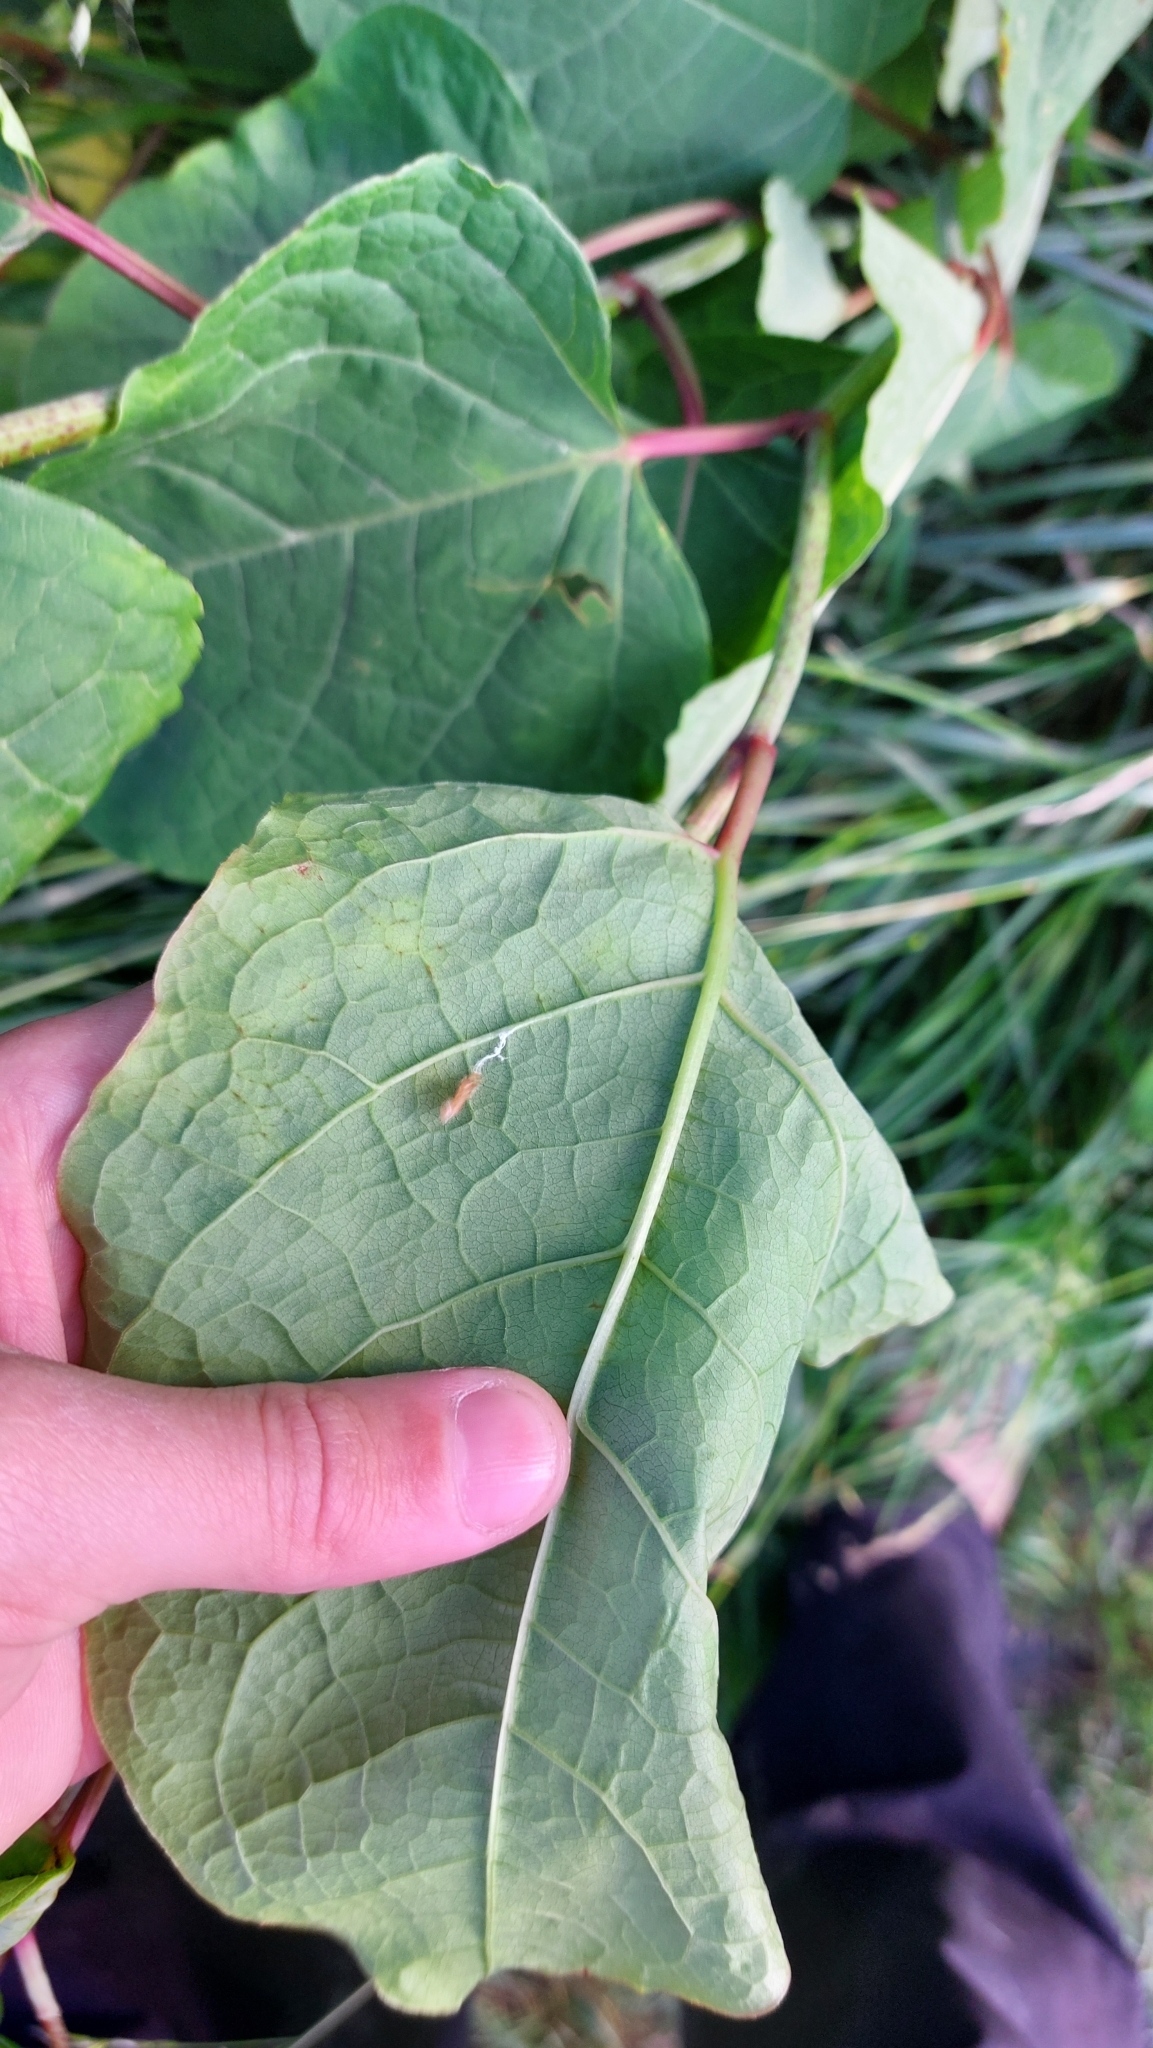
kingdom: Plantae
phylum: Tracheophyta
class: Magnoliopsida
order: Caryophyllales
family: Polygonaceae
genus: Reynoutria
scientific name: Reynoutria bohemica
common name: Bohemian knotweed
